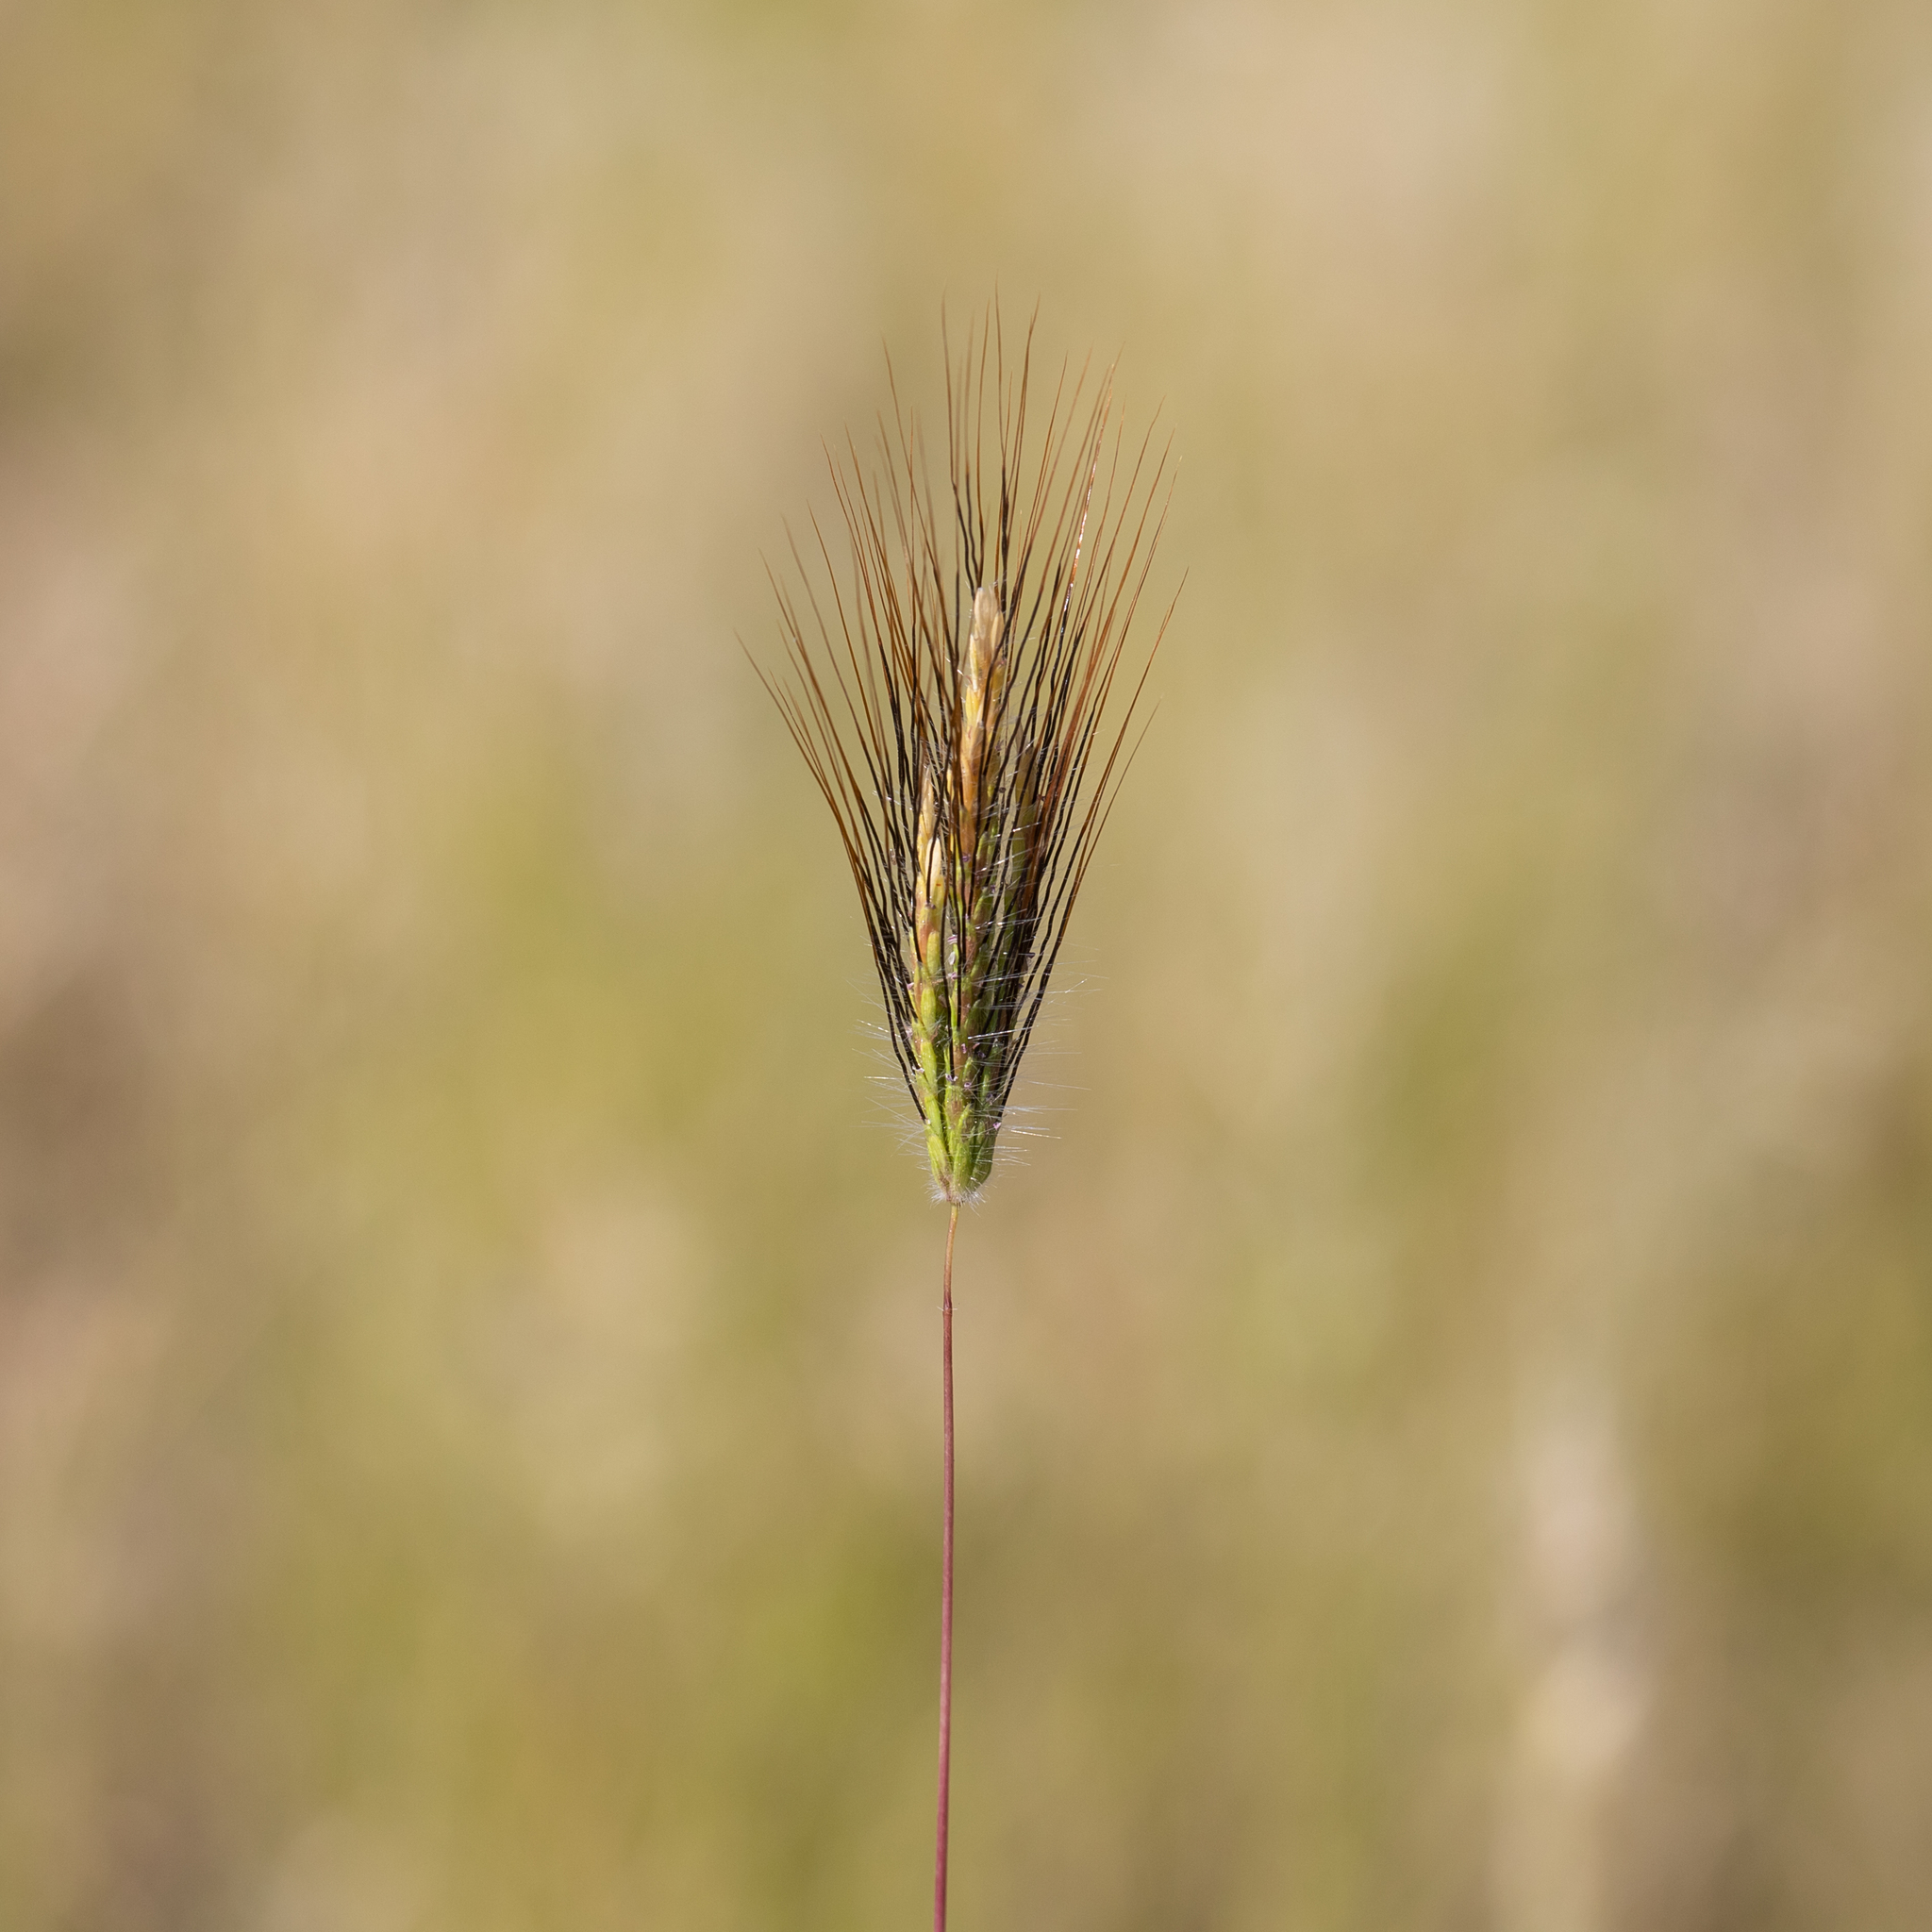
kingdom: Plantae
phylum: Tracheophyta
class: Liliopsida
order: Poales
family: Poaceae
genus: Dichanthium
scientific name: Dichanthium sericeum
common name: Silky bluestem
